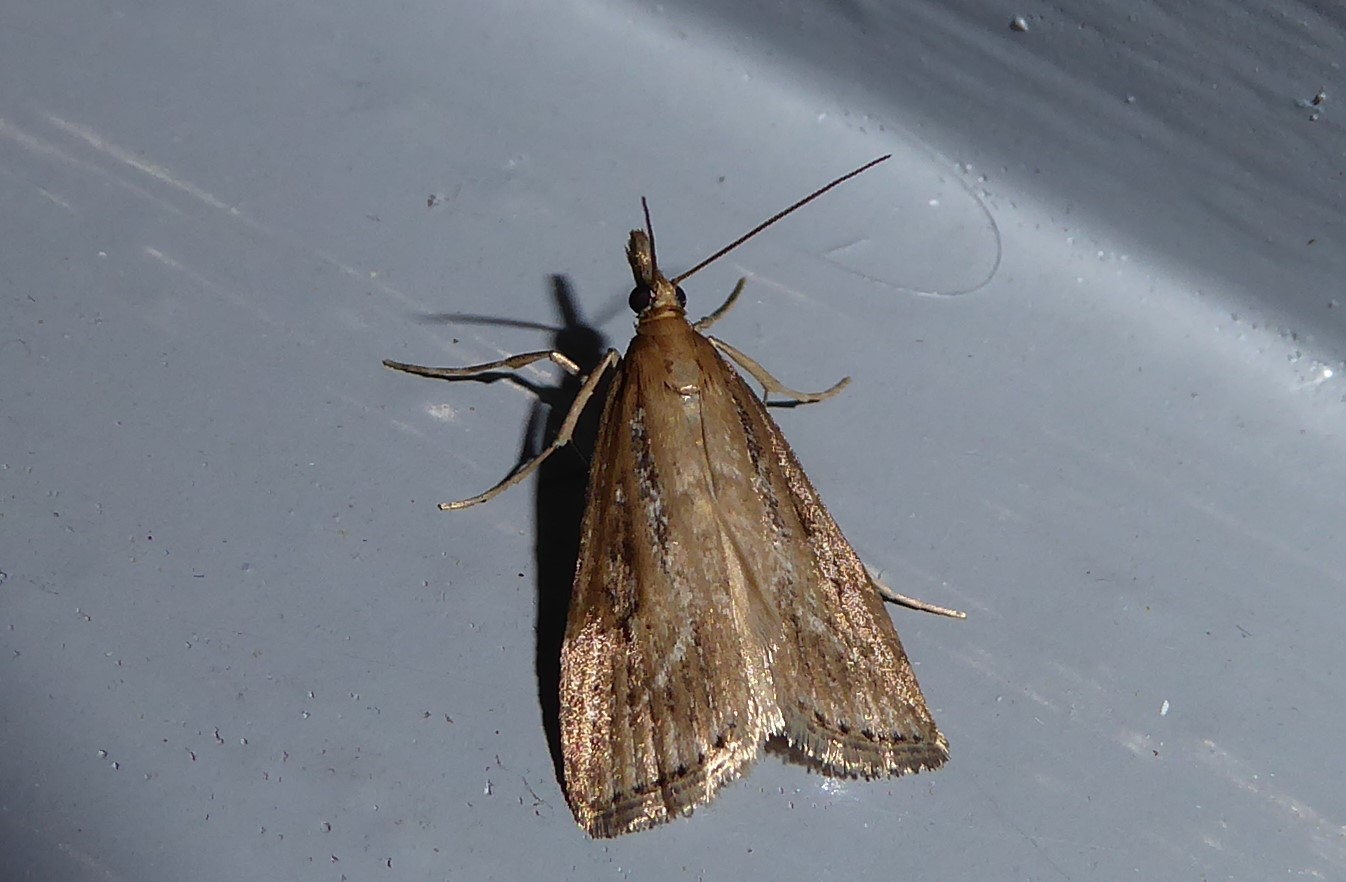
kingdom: Animalia
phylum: Arthropoda
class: Insecta
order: Lepidoptera
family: Crambidae
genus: Eudonia
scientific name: Eudonia octophora
